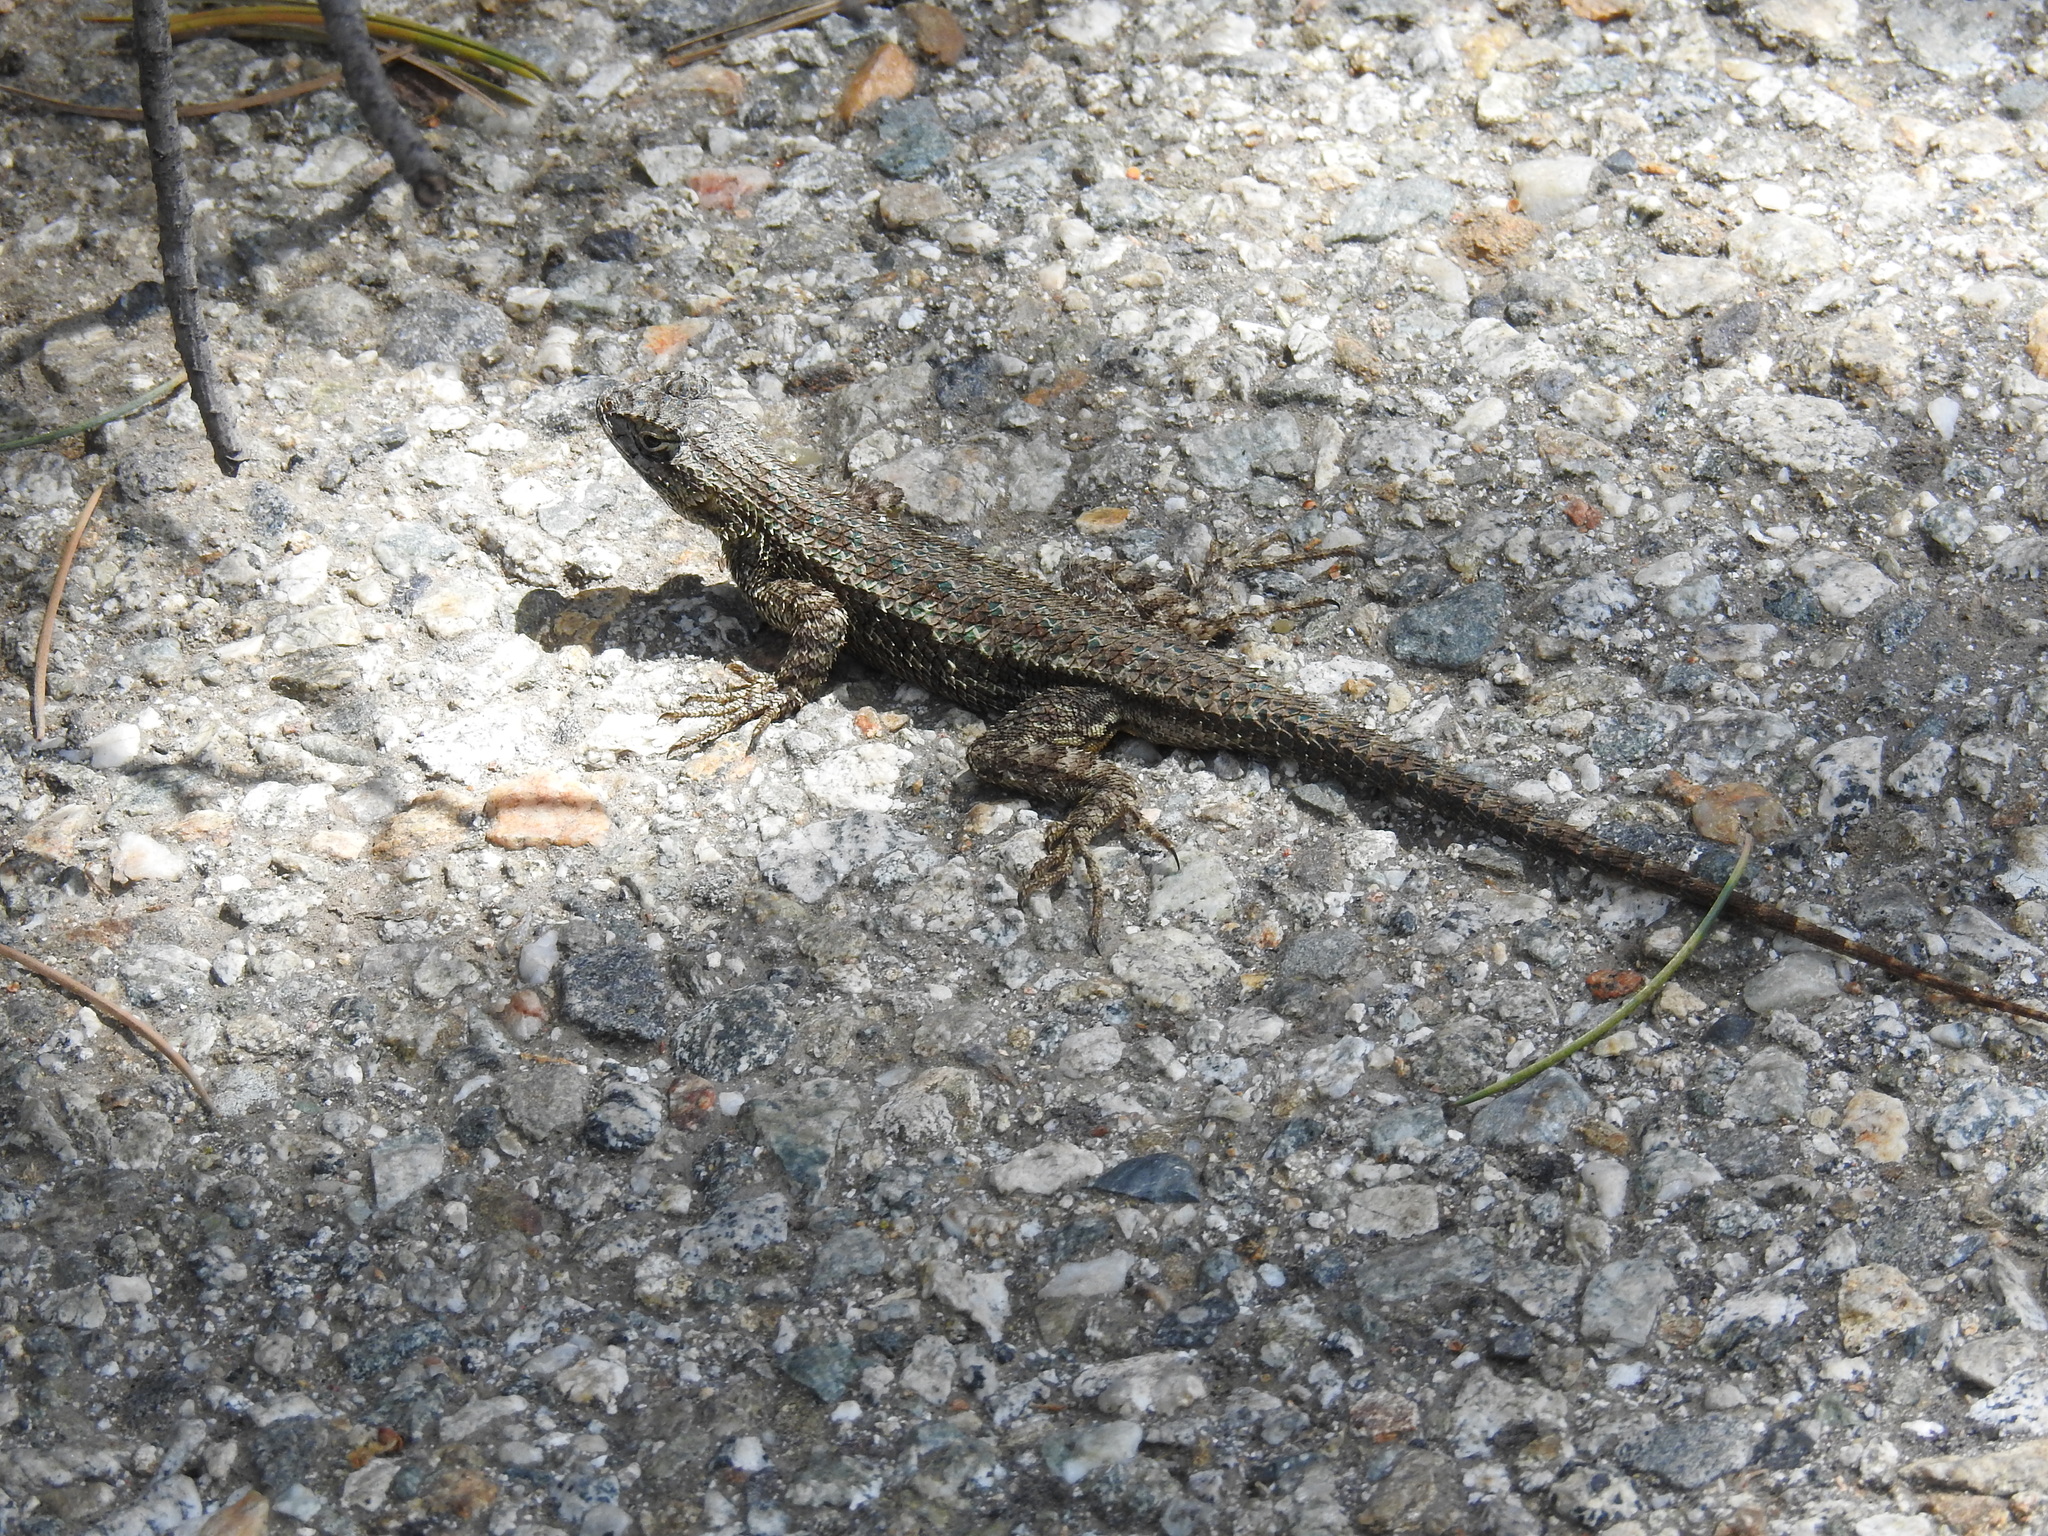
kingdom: Animalia
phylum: Chordata
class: Squamata
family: Phrynosomatidae
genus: Sceloporus
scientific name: Sceloporus occidentalis
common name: Western fence lizard
